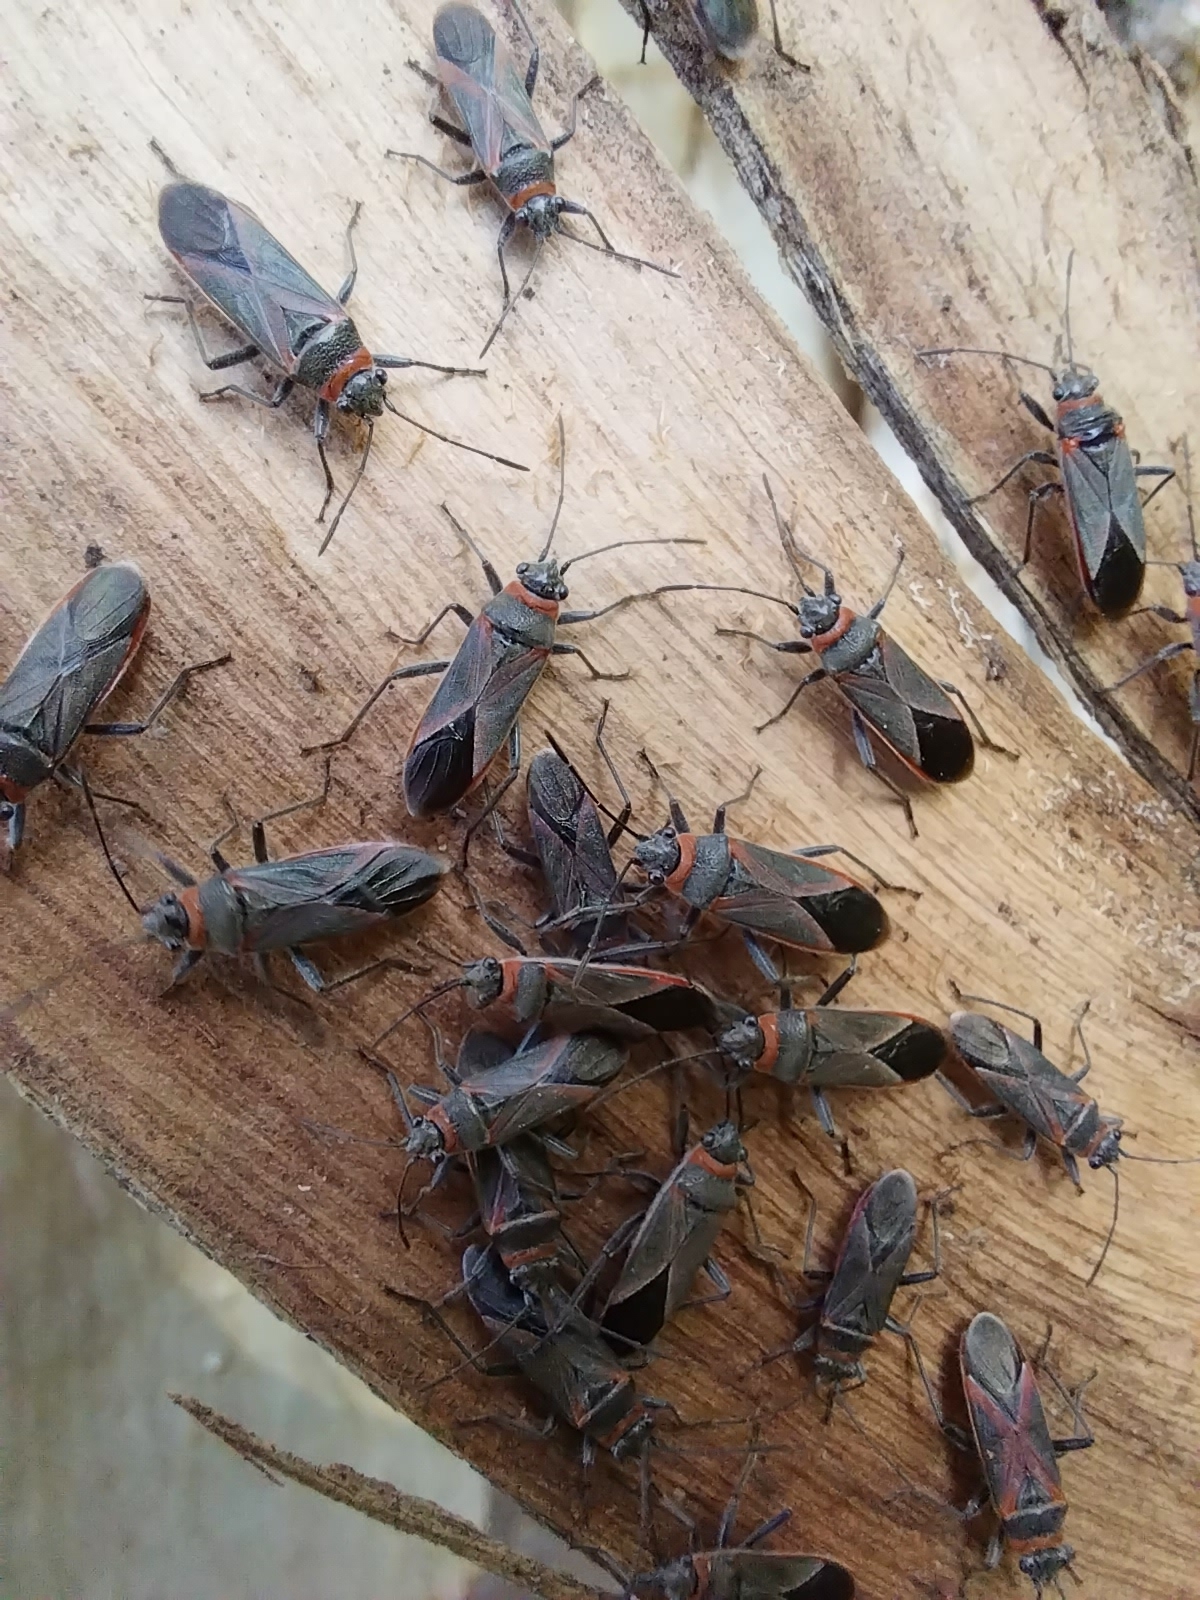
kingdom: Animalia
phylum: Arthropoda
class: Insecta
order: Hemiptera
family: Lygaeidae
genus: Arocatus
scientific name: Arocatus rusticus
